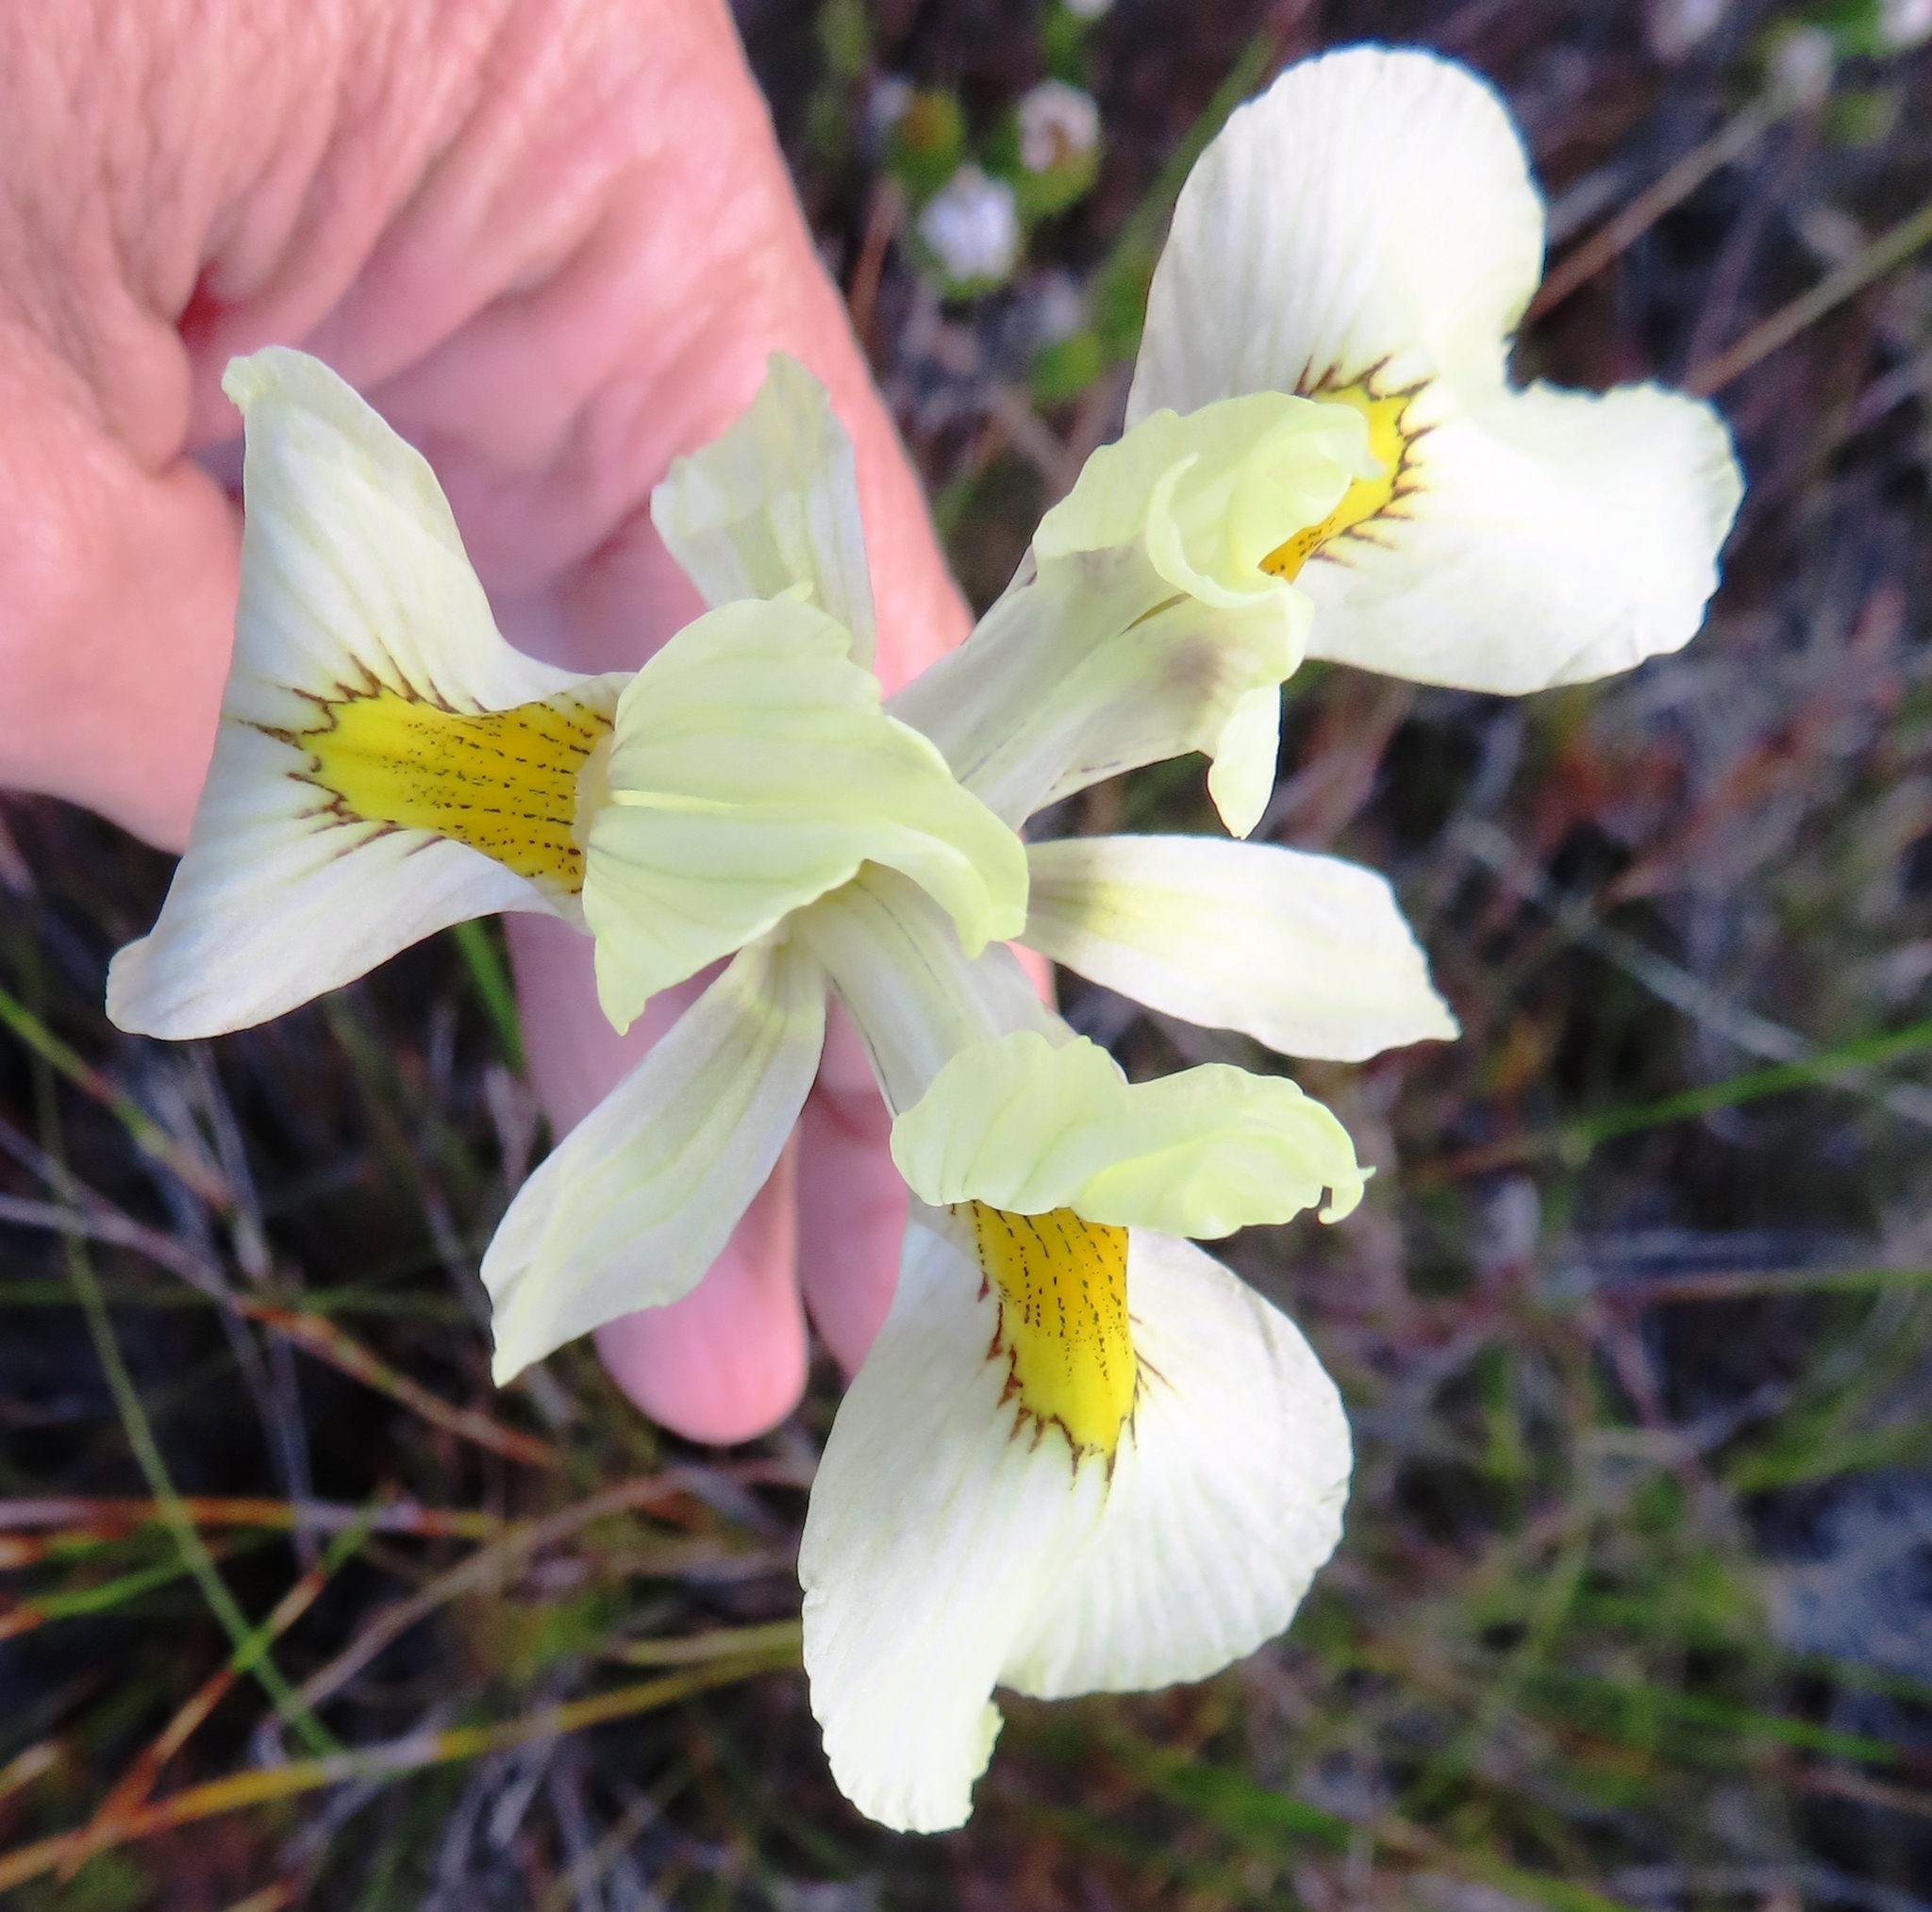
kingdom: Plantae
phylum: Tracheophyta
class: Liliopsida
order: Asparagales
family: Iridaceae
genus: Moraea
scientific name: Moraea angusta
